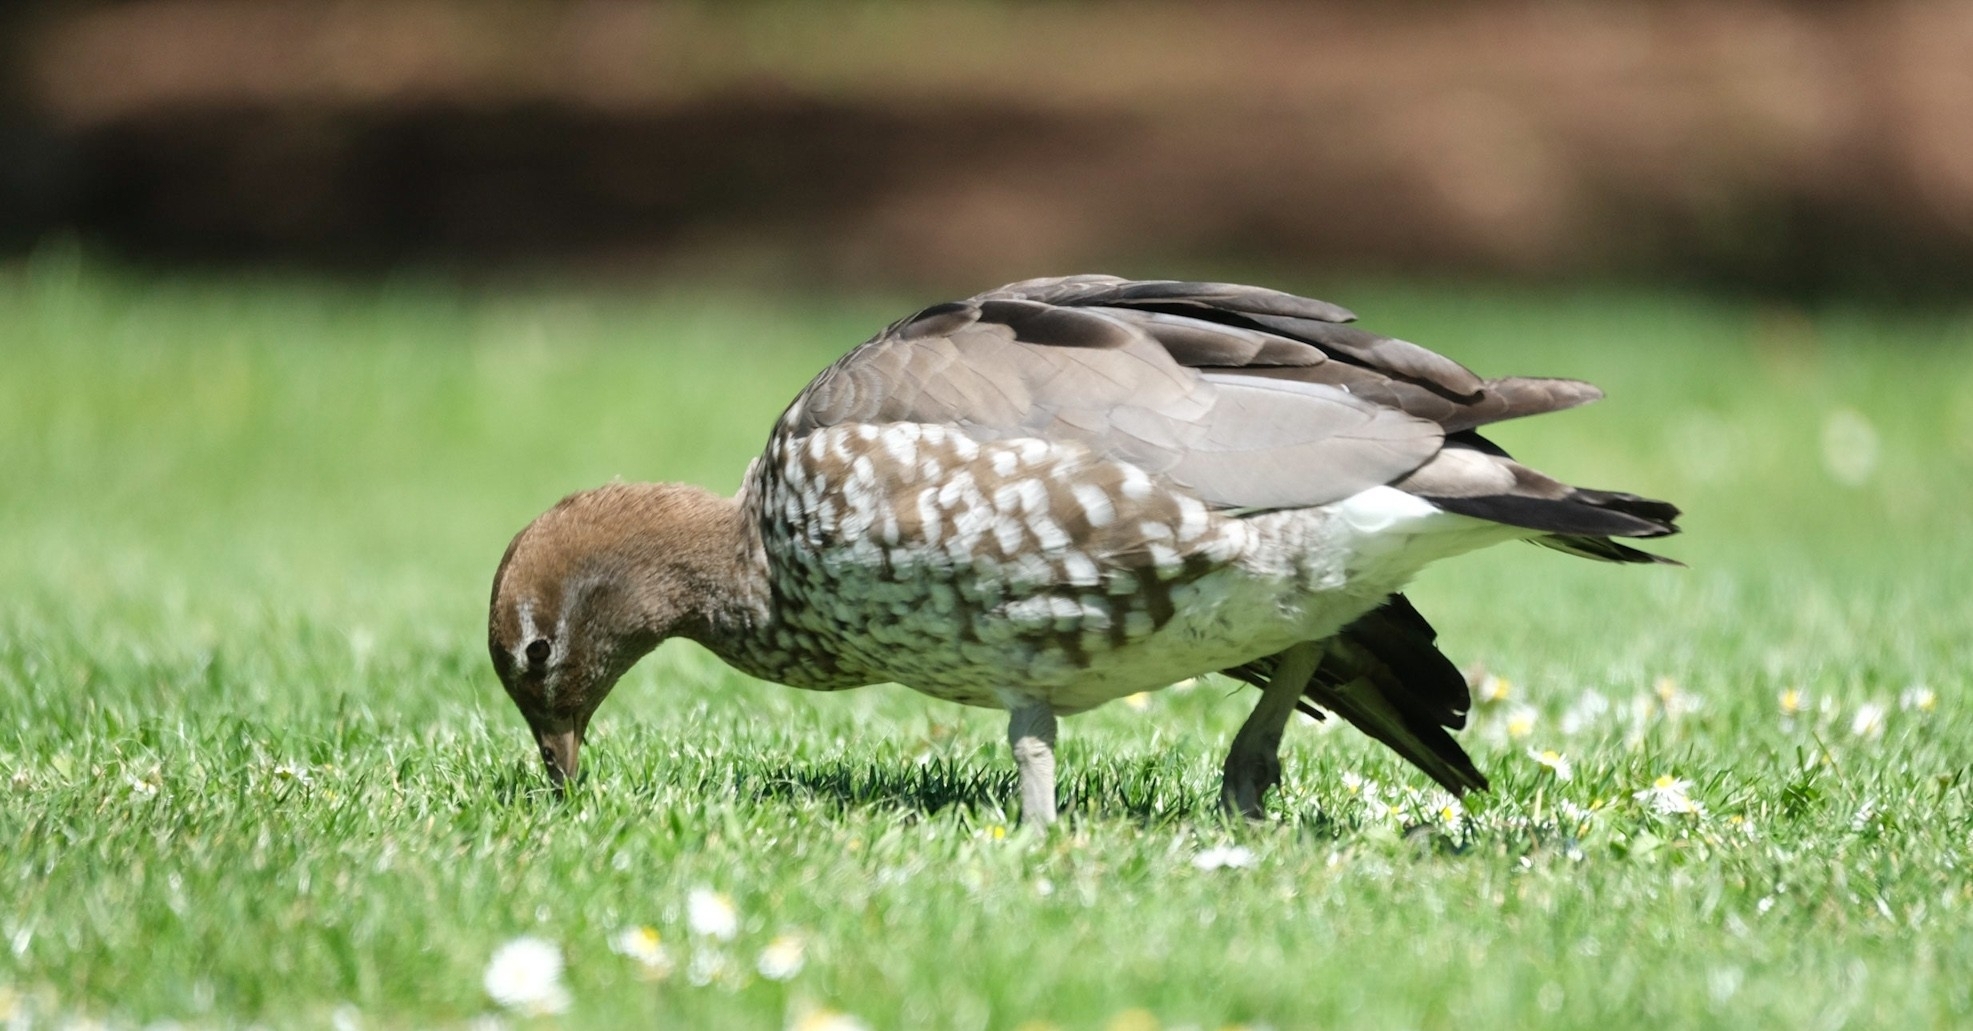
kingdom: Animalia
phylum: Chordata
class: Aves
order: Anseriformes
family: Anatidae
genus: Chenonetta
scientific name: Chenonetta jubata
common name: Maned duck
